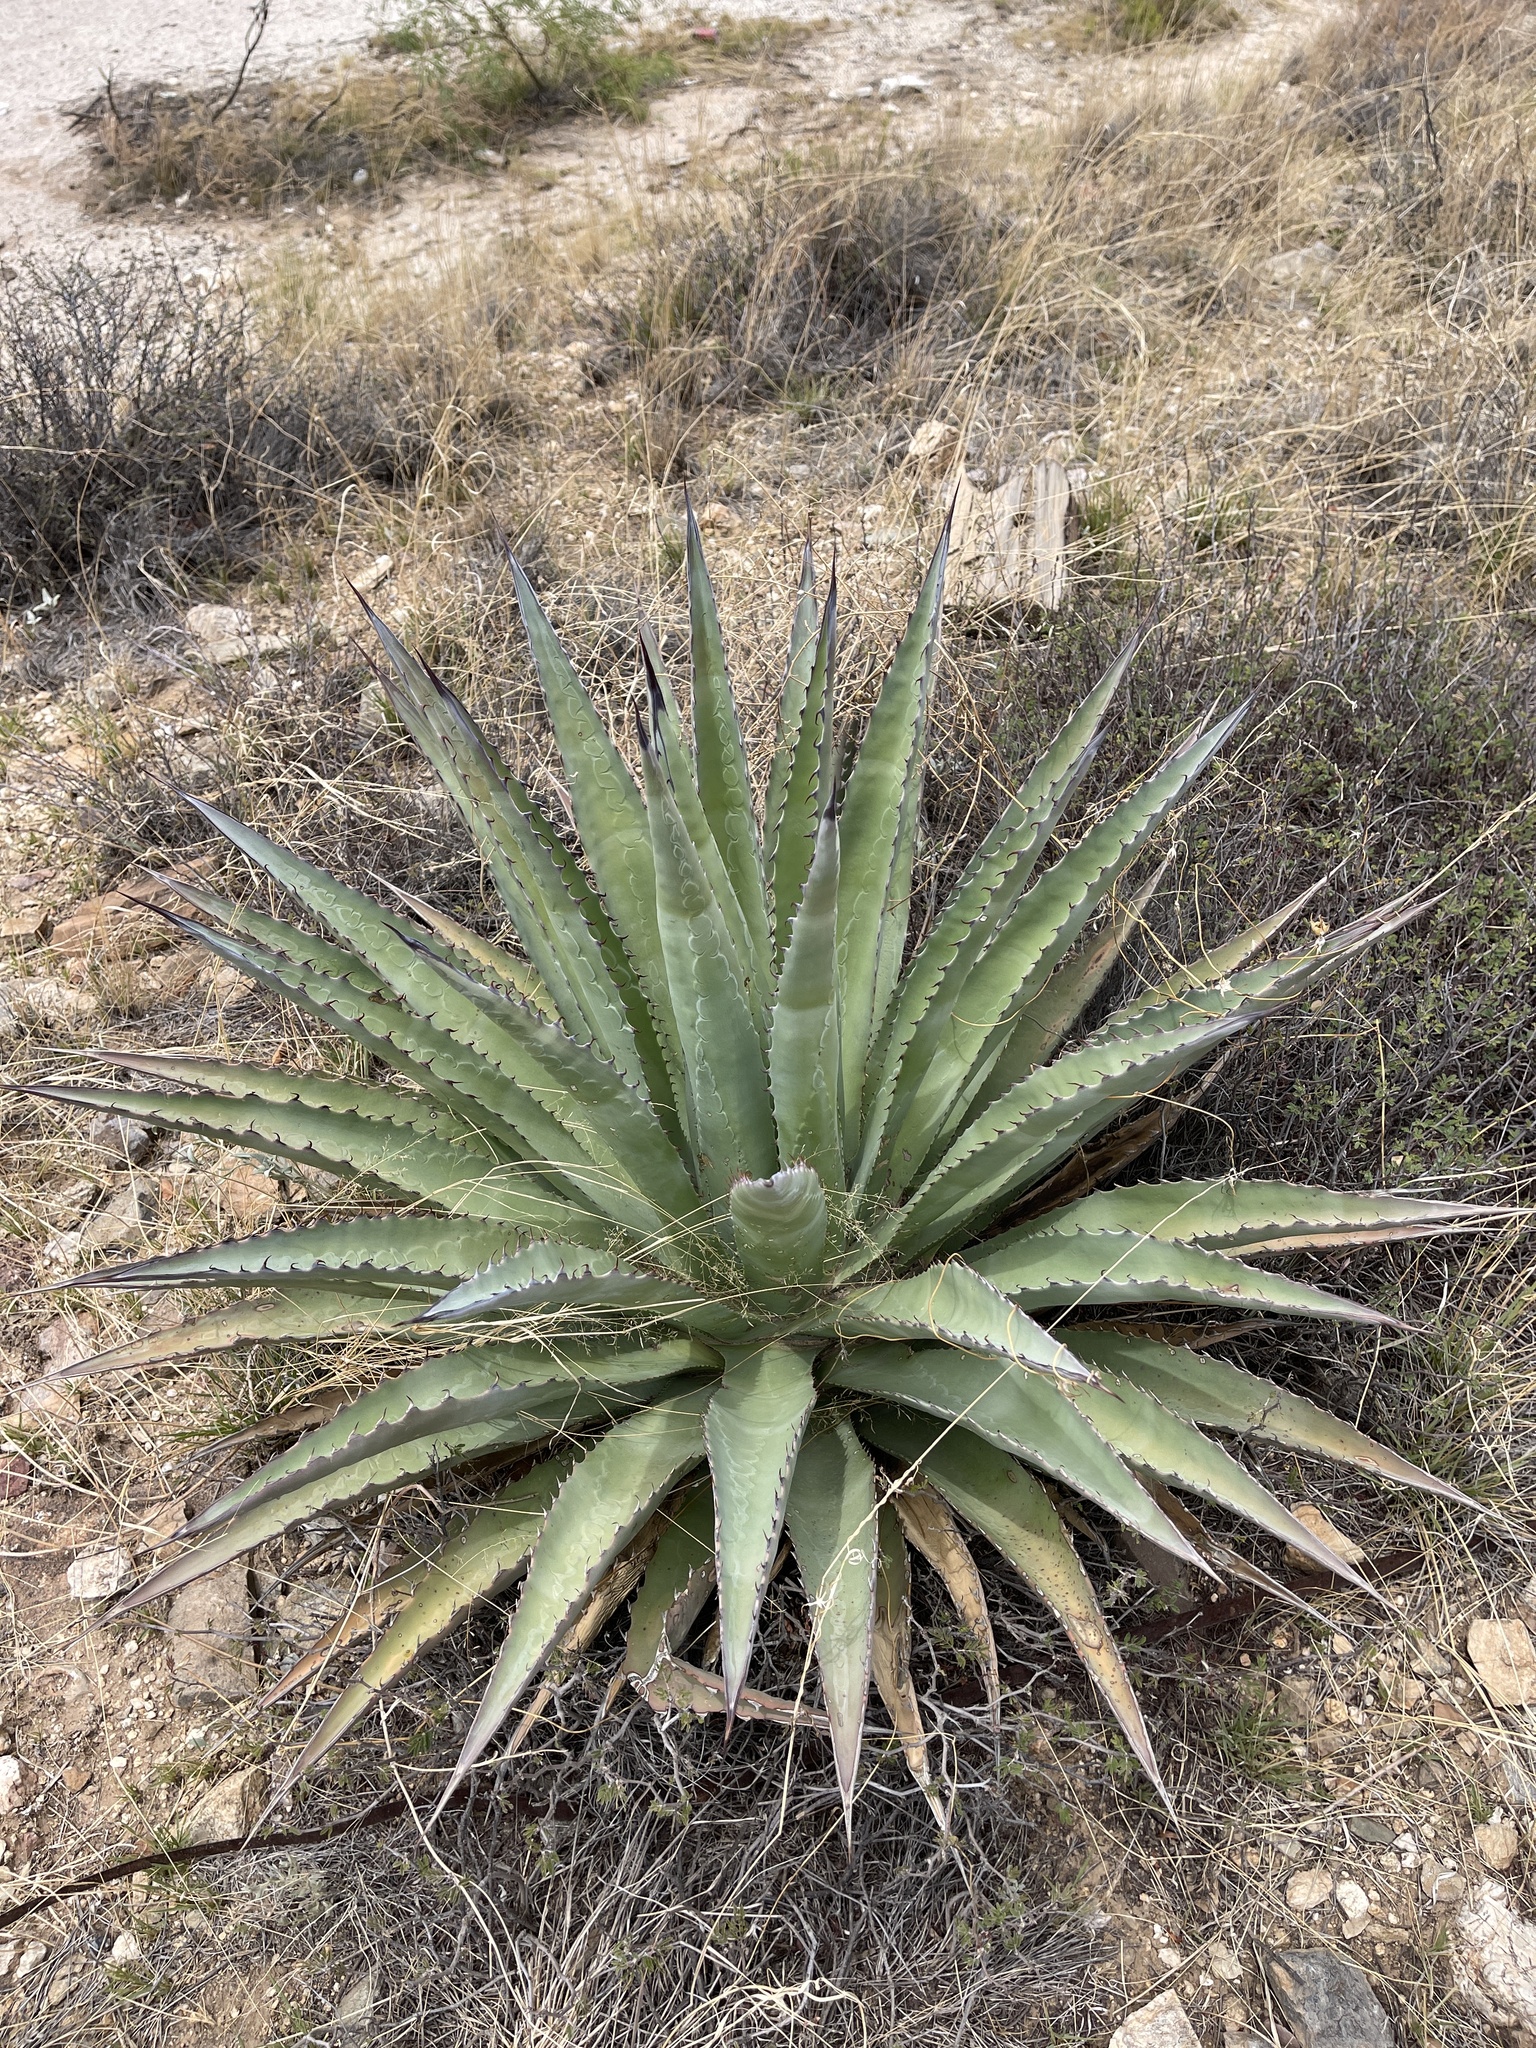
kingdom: Plantae
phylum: Tracheophyta
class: Liliopsida
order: Asparagales
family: Asparagaceae
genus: Agave
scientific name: Agave palmeri
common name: Palmer agave
